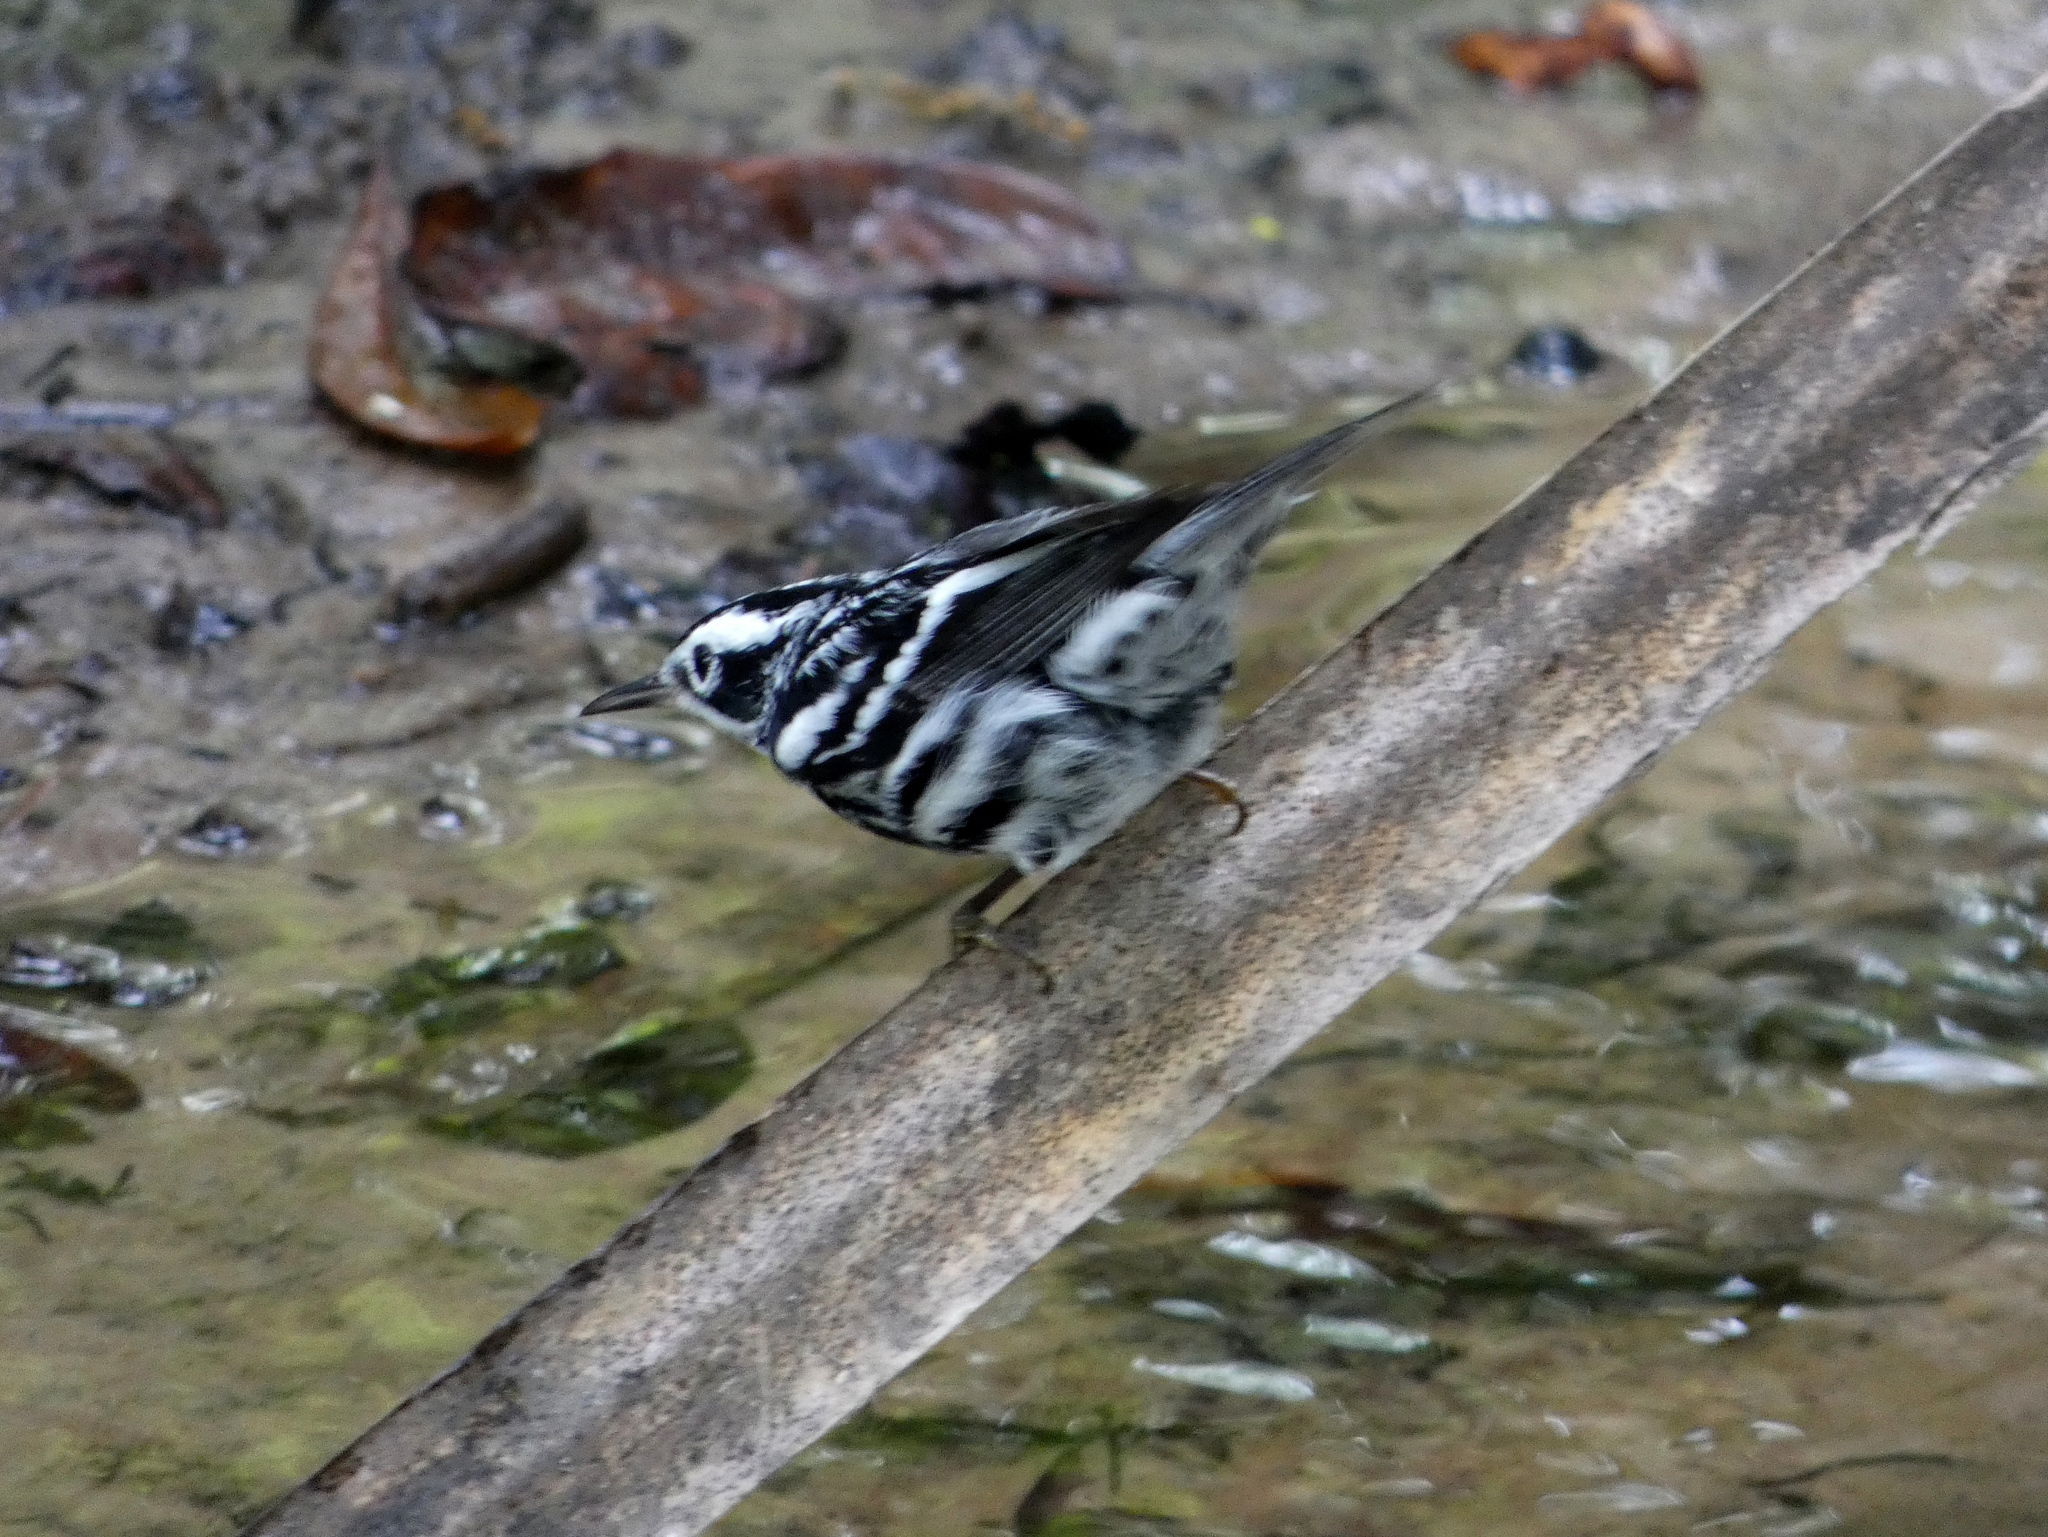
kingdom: Animalia
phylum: Chordata
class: Aves
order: Passeriformes
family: Parulidae
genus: Mniotilta
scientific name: Mniotilta varia
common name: Black-and-white warbler
